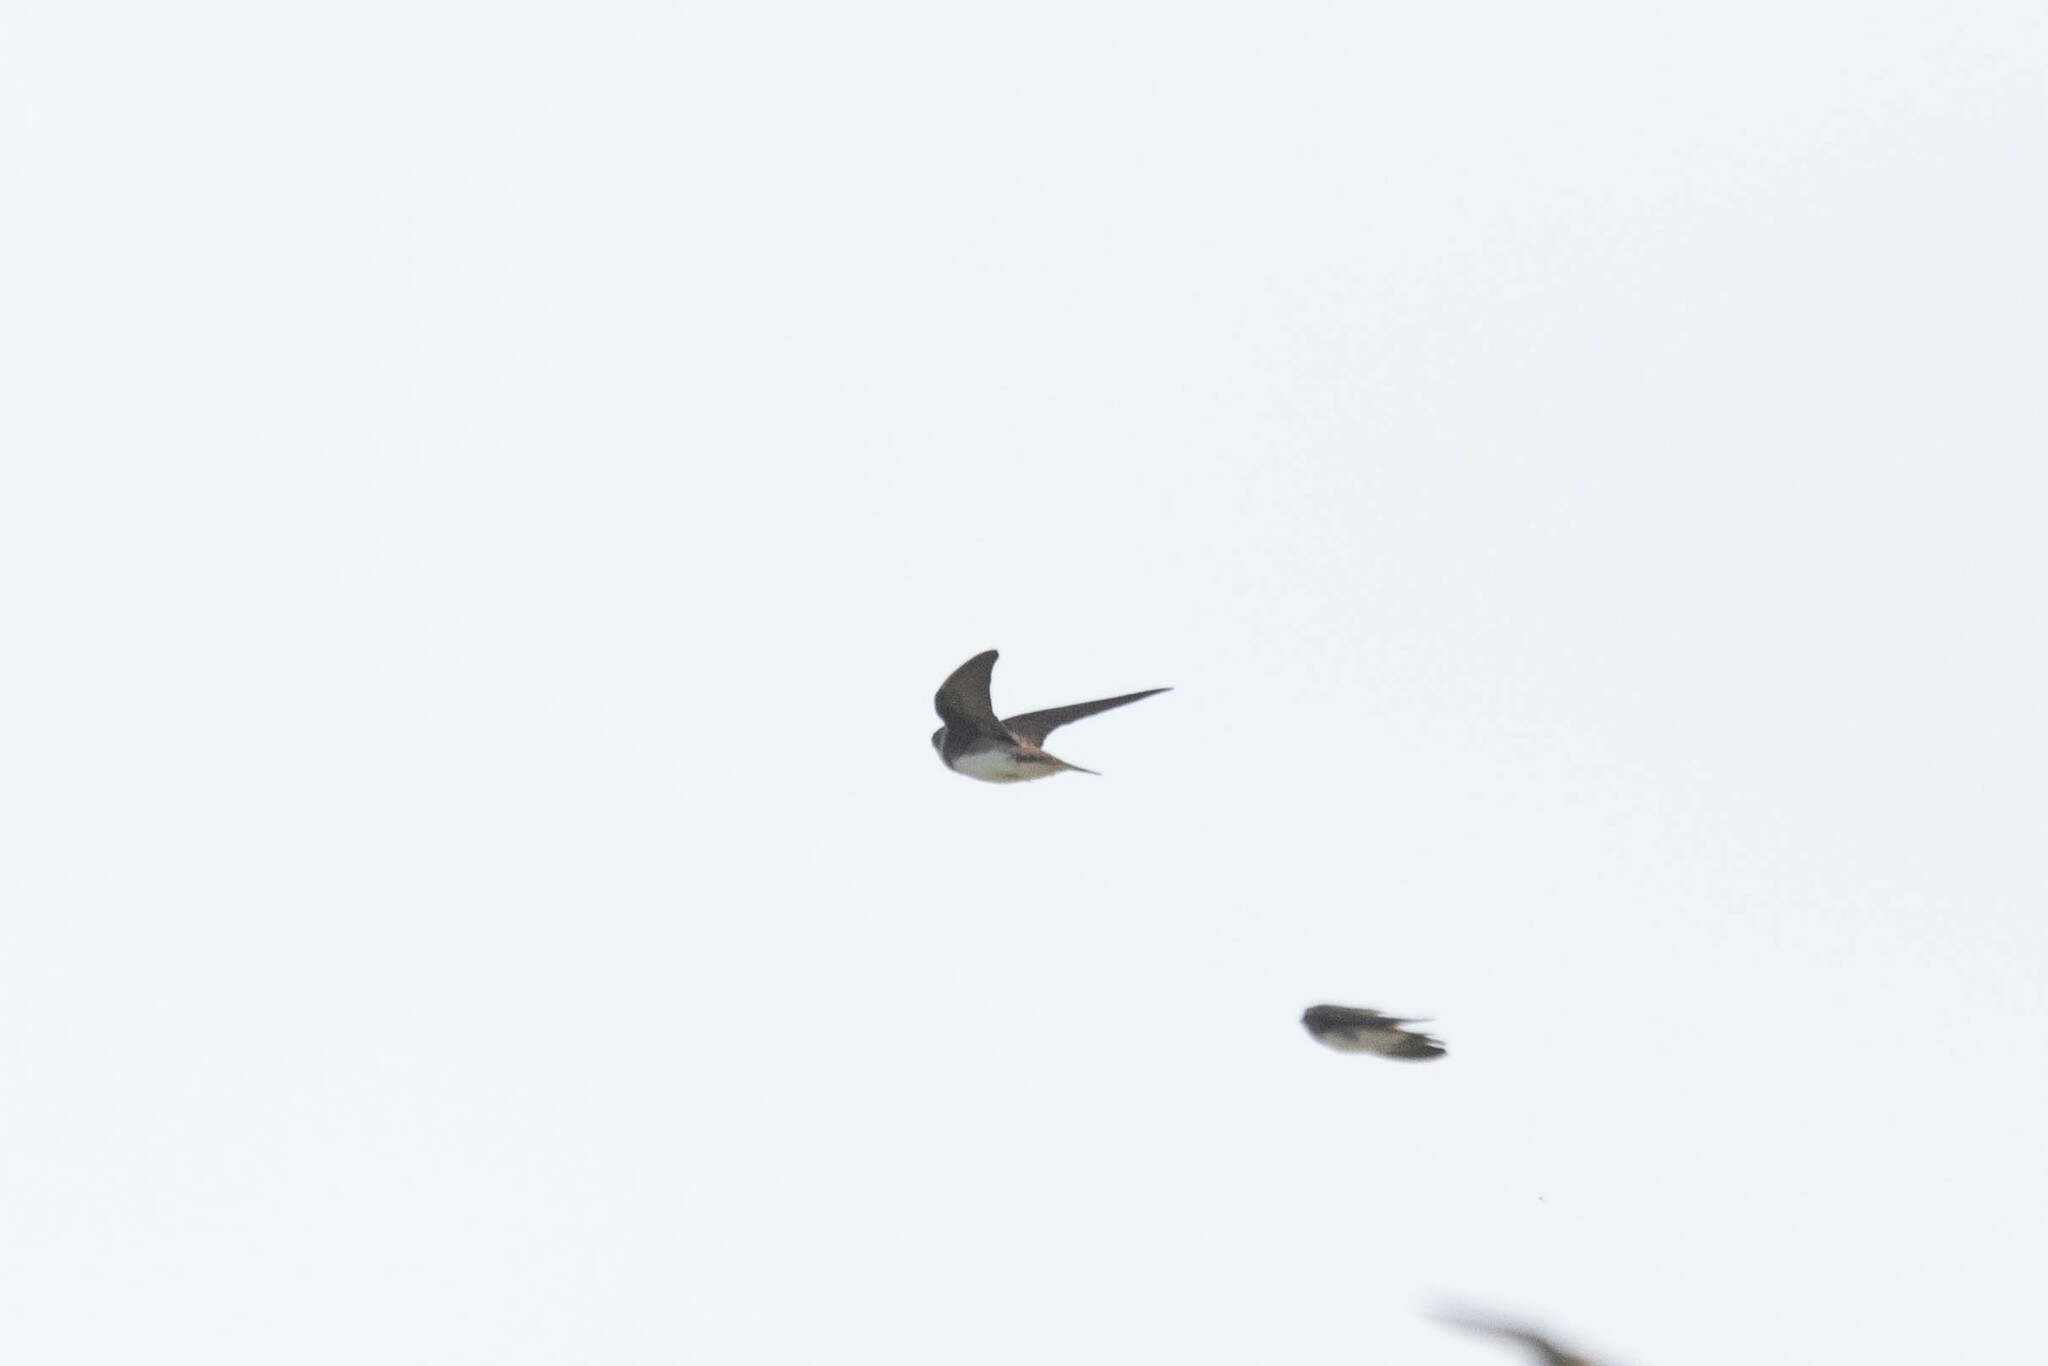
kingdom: Animalia
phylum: Chordata
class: Aves
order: Passeriformes
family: Hirundinidae
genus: Riparia
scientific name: Riparia riparia
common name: Sand martin
